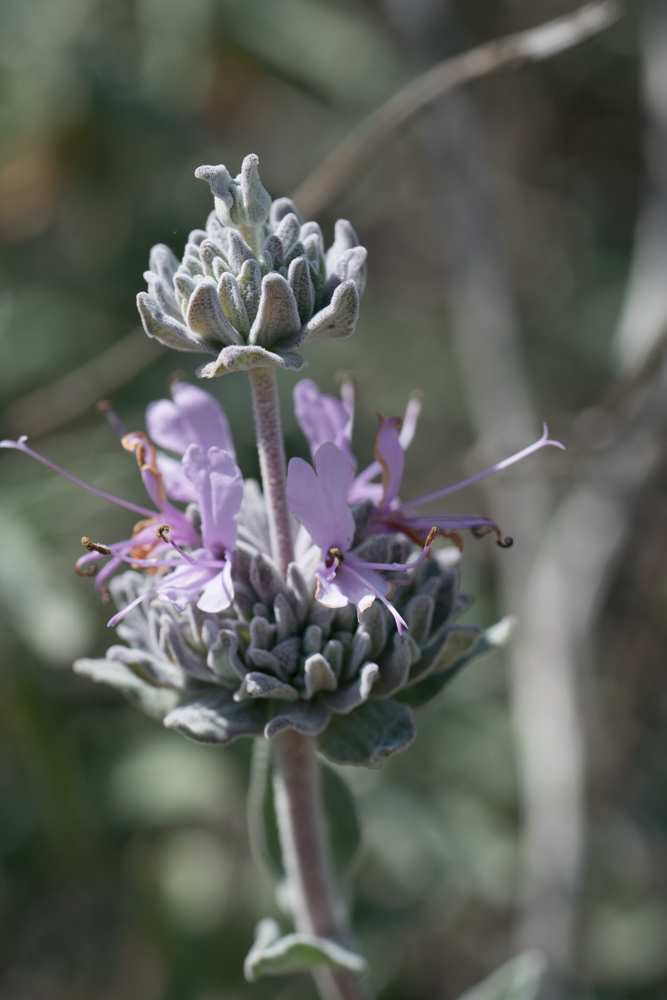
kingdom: Plantae
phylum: Tracheophyta
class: Magnoliopsida
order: Lamiales
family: Lamiaceae
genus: Salvia
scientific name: Salvia leucophylla
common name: Purple sage
